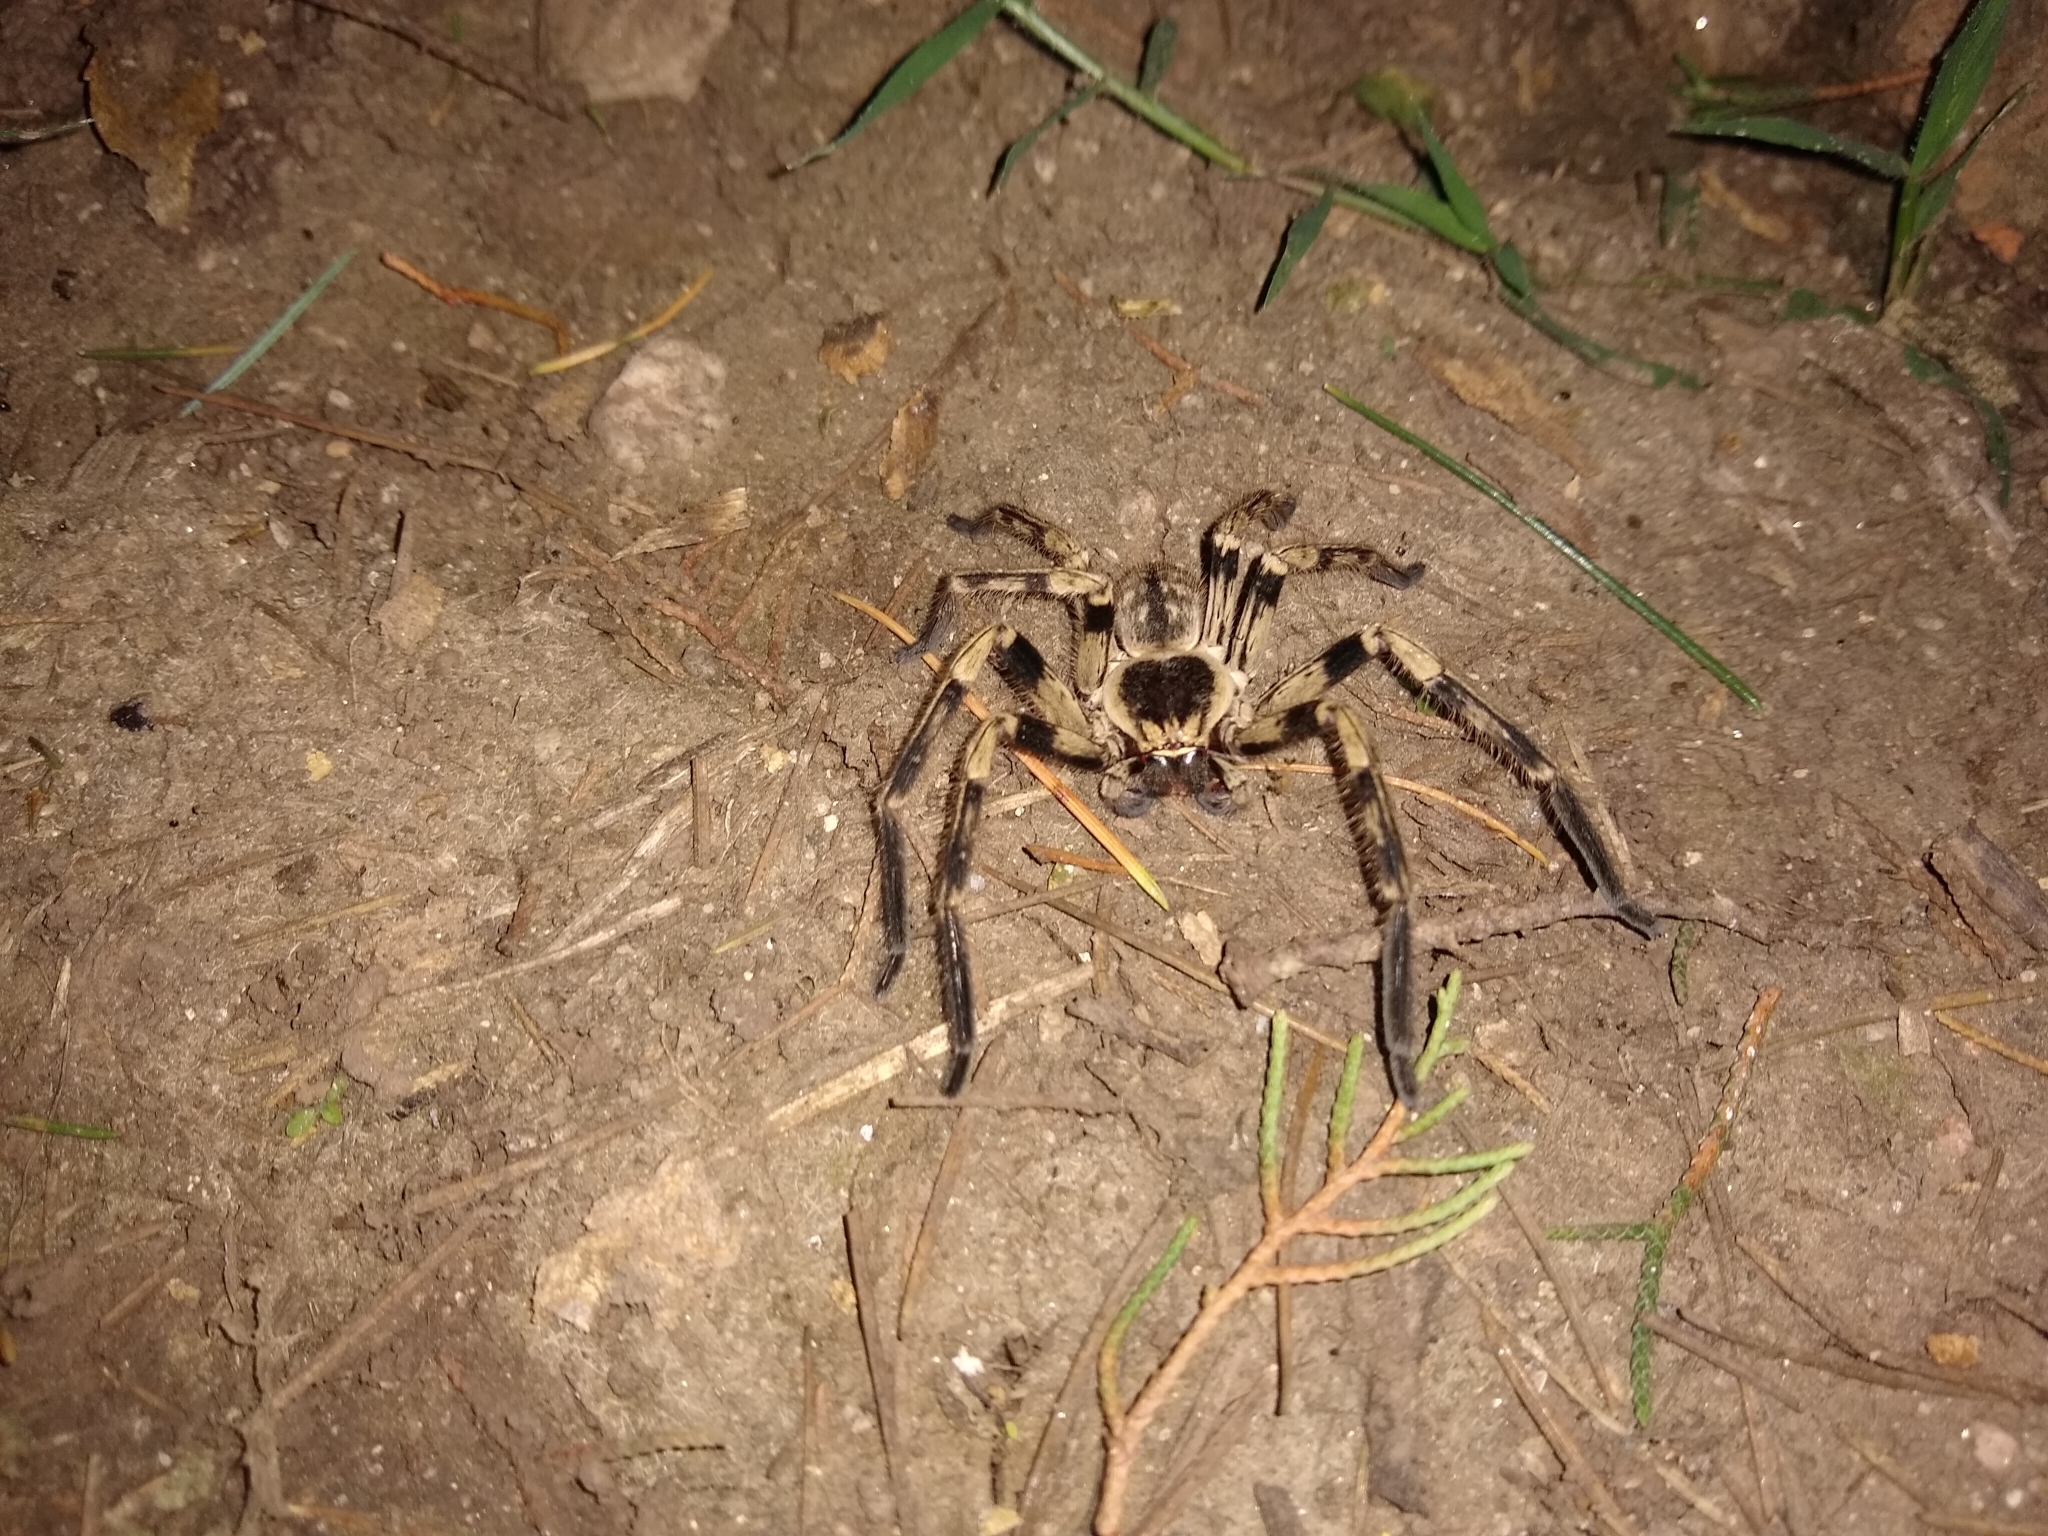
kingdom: Animalia
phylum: Arthropoda
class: Arachnida
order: Araneae
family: Sparassidae
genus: Polybetes
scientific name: Polybetes pythagoricus
